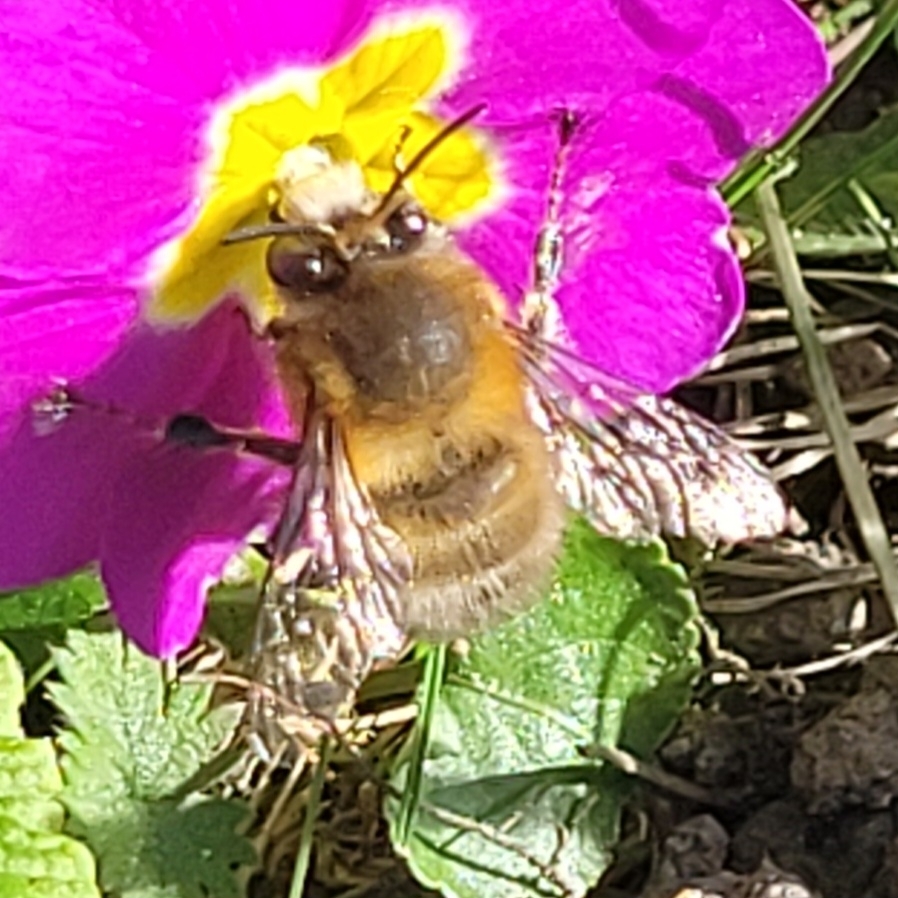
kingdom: Animalia
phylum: Arthropoda
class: Insecta
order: Hymenoptera
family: Apidae
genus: Anthophora
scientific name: Anthophora plumipes
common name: Hairy-footed flower bee
